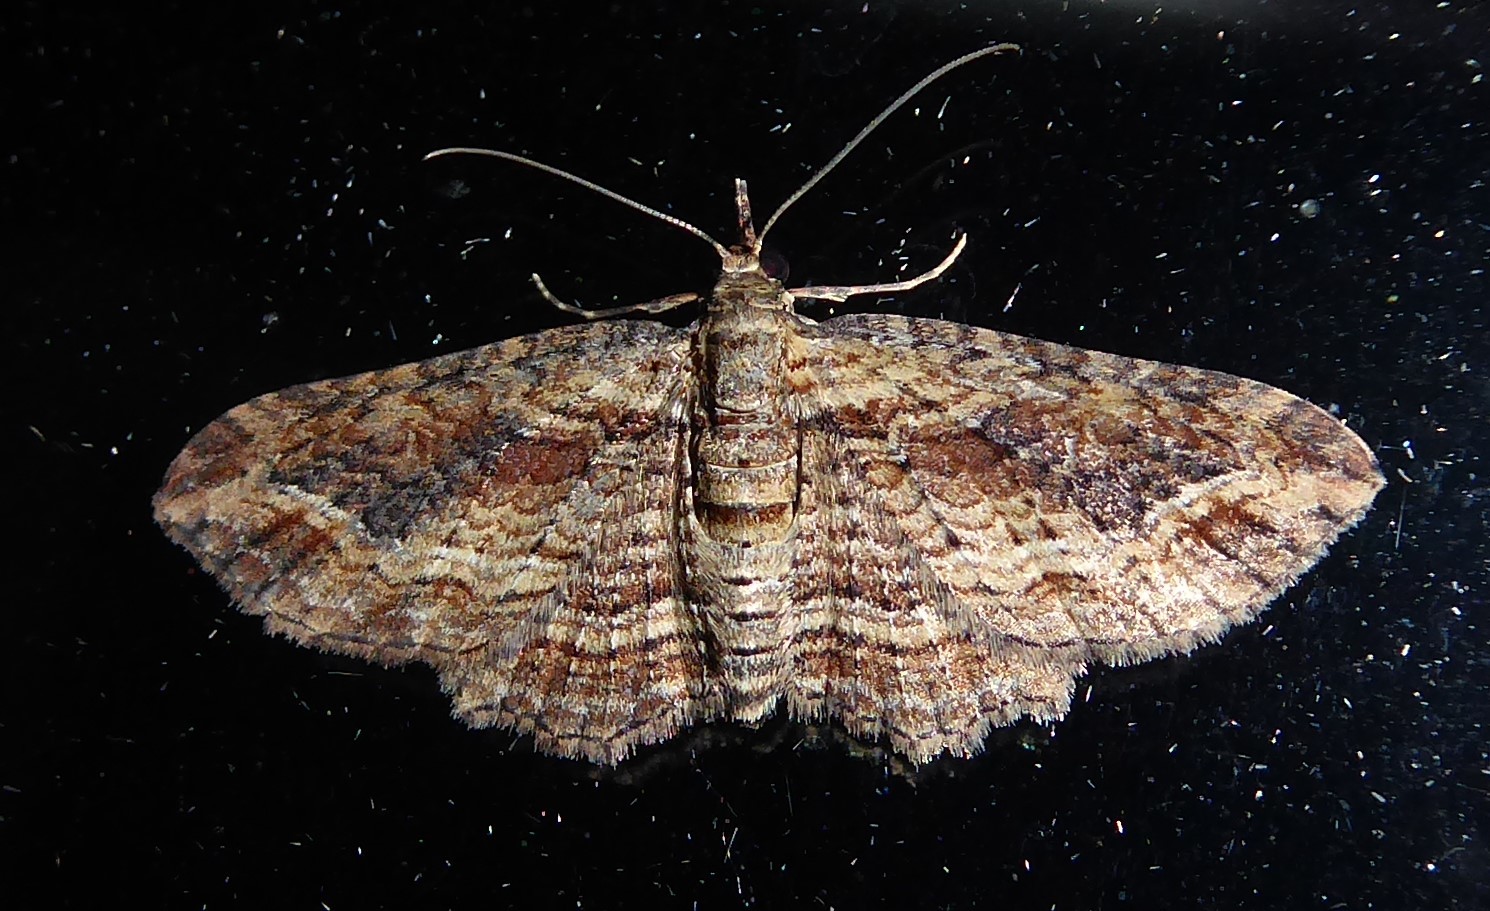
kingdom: Animalia
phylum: Arthropoda
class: Insecta
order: Lepidoptera
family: Geometridae
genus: Chloroclystis
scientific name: Chloroclystis filata
